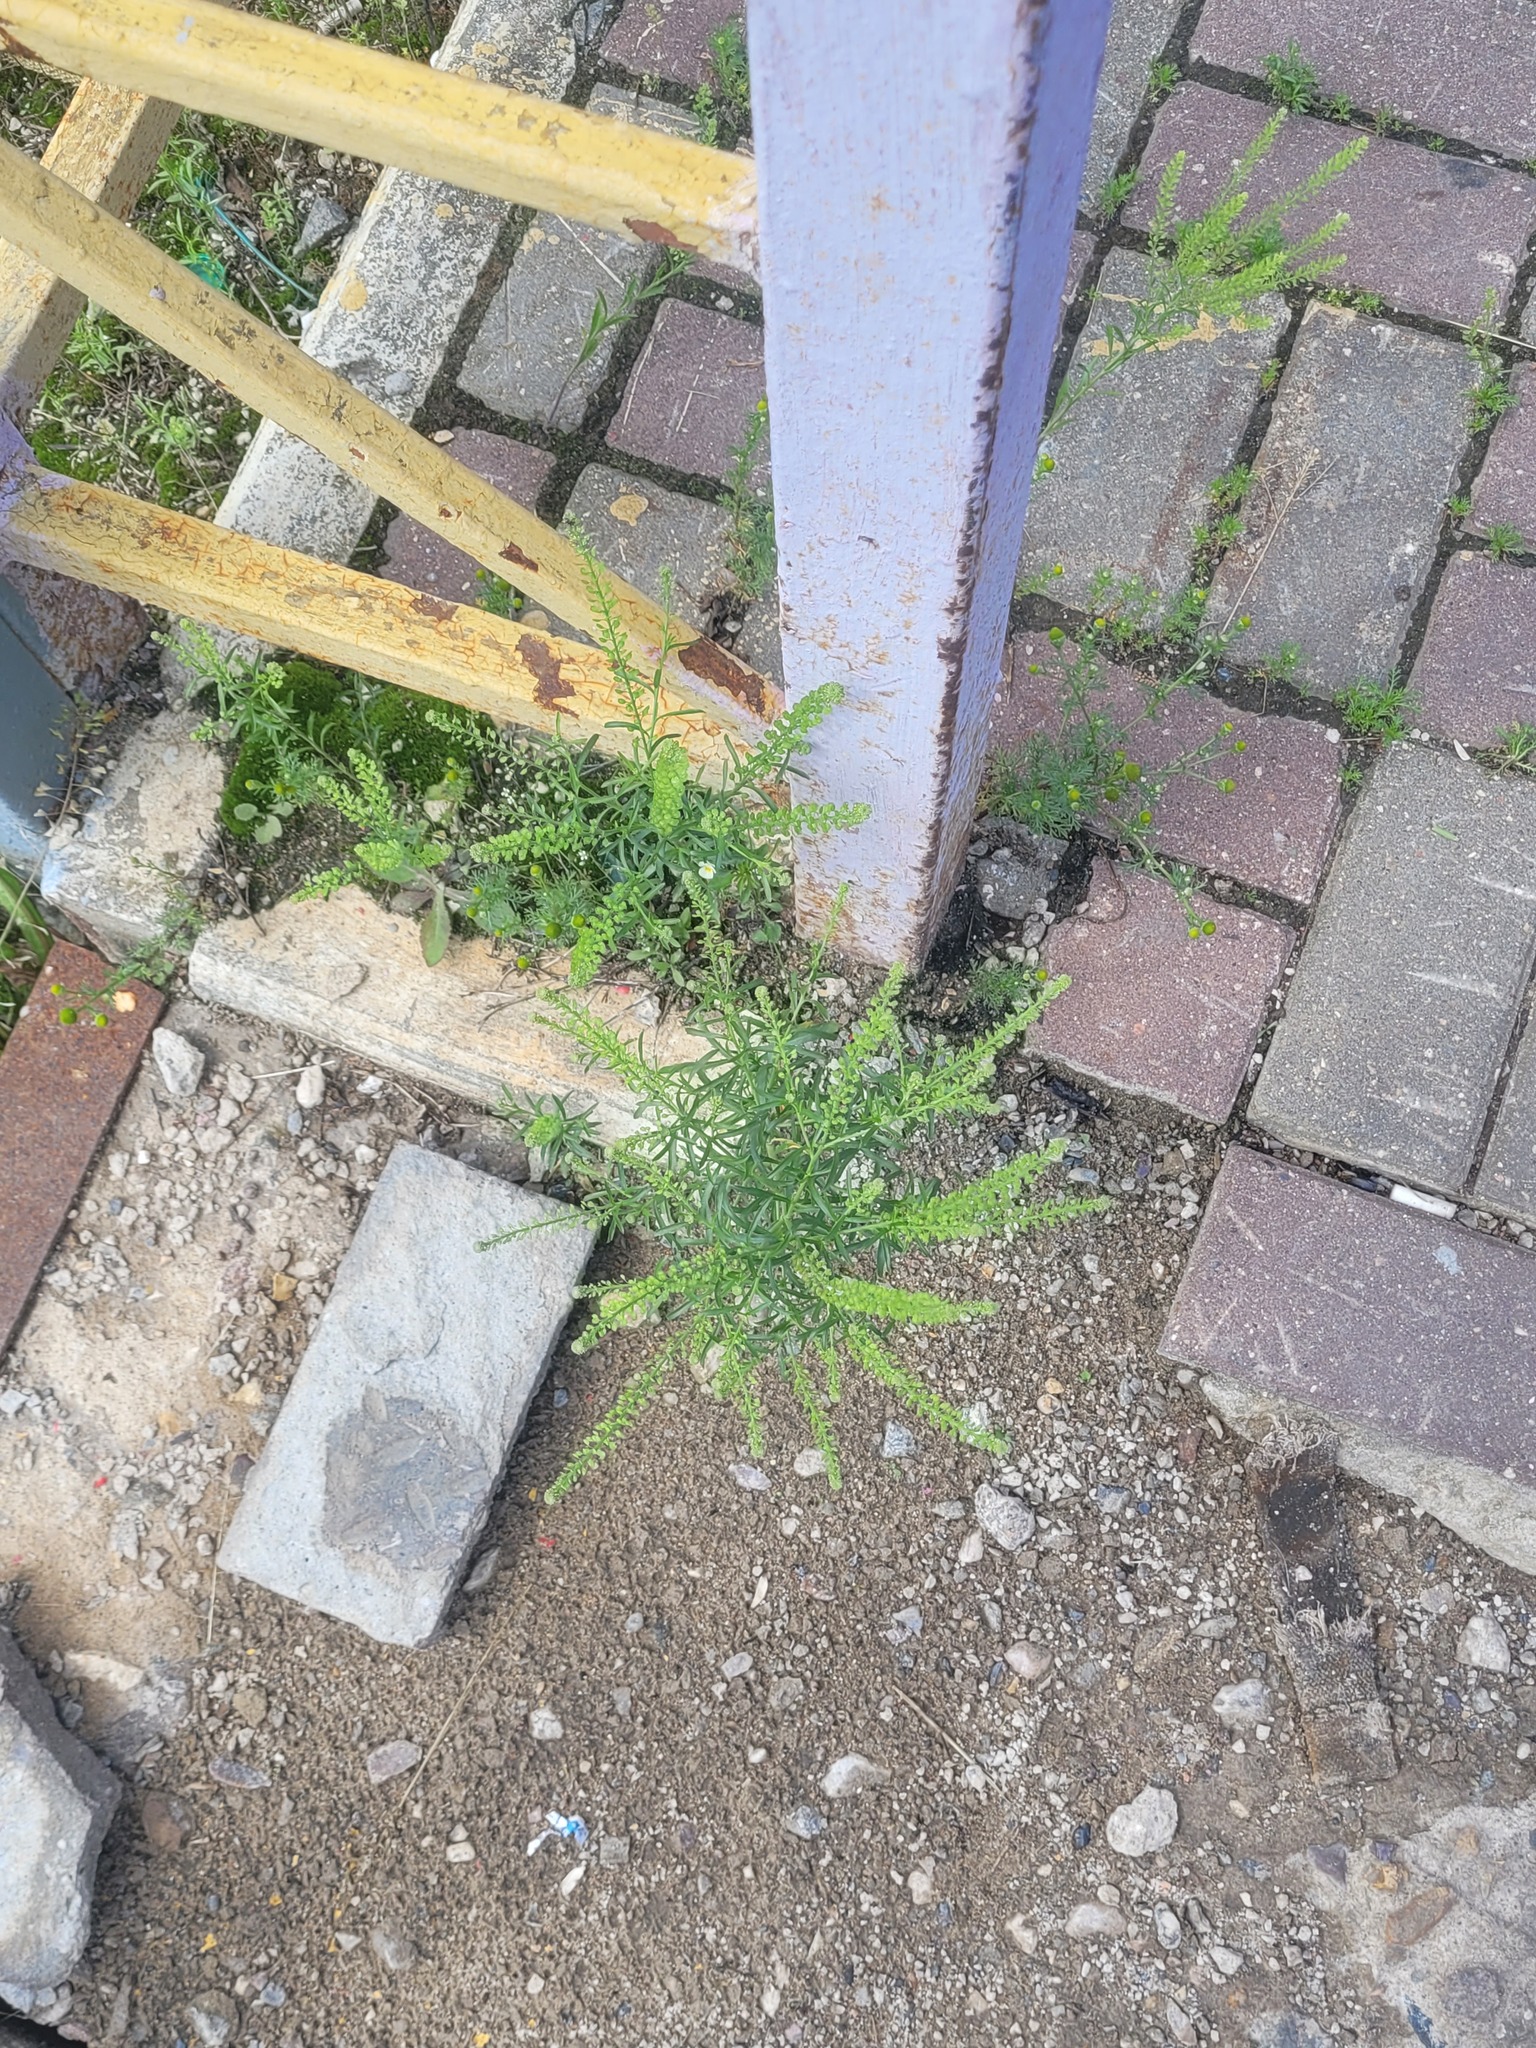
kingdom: Plantae
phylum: Tracheophyta
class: Magnoliopsida
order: Brassicales
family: Brassicaceae
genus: Lepidium
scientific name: Lepidium densiflorum
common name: Miner's pepperwort
